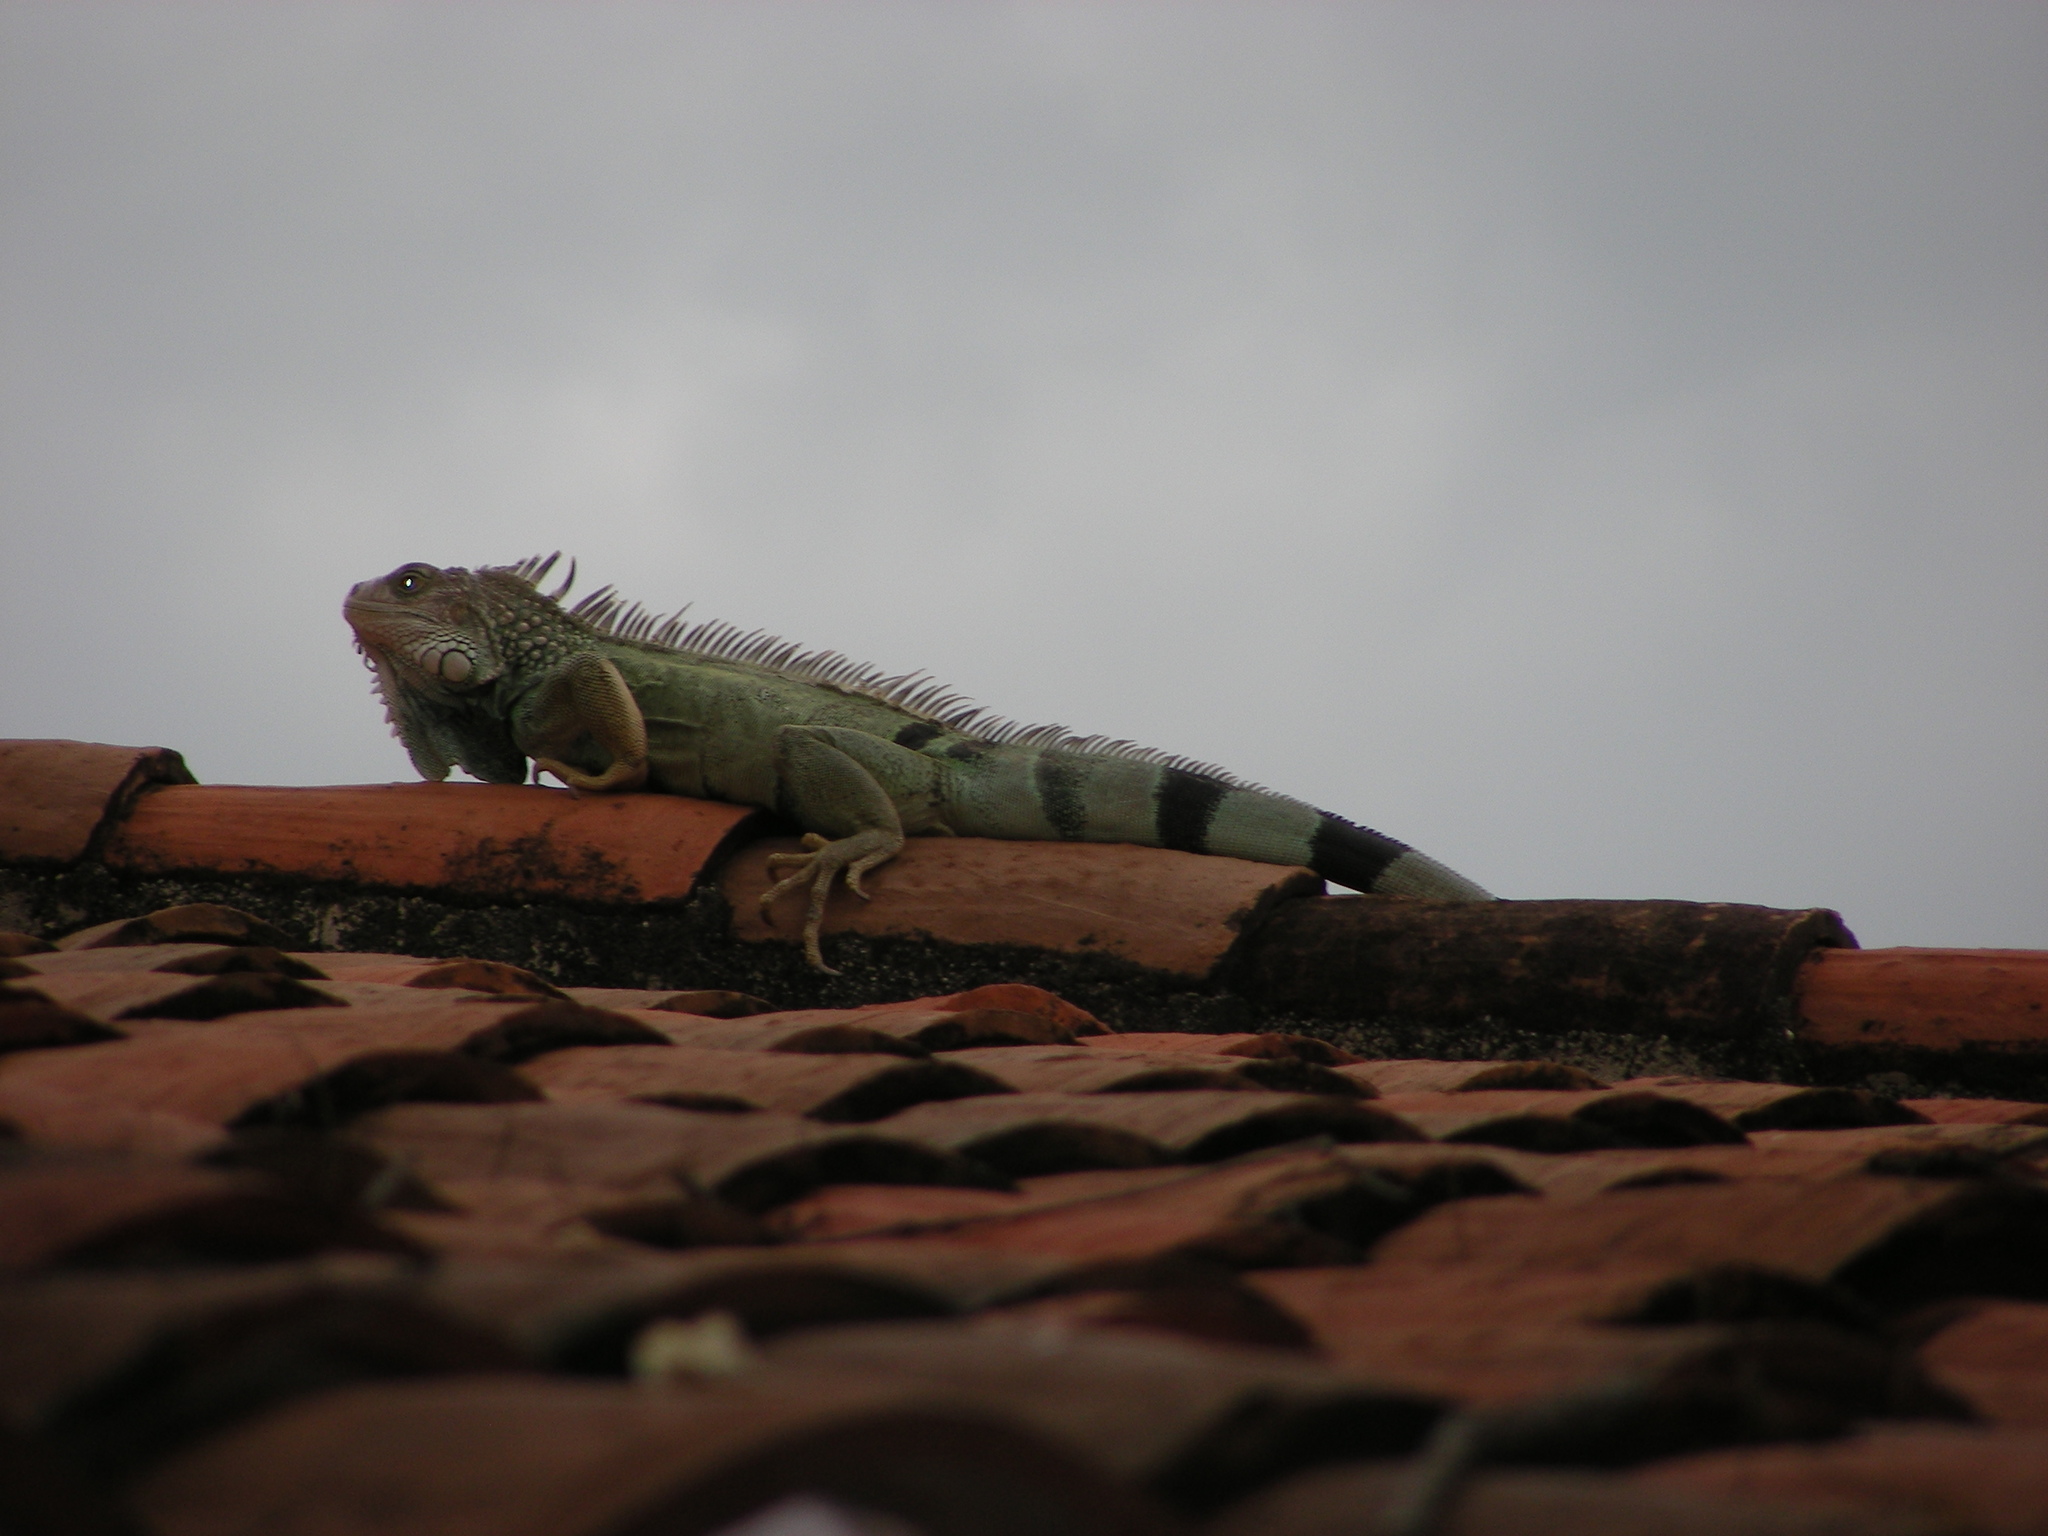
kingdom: Animalia
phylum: Chordata
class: Squamata
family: Iguanidae
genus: Iguana
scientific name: Iguana iguana
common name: Green iguana
